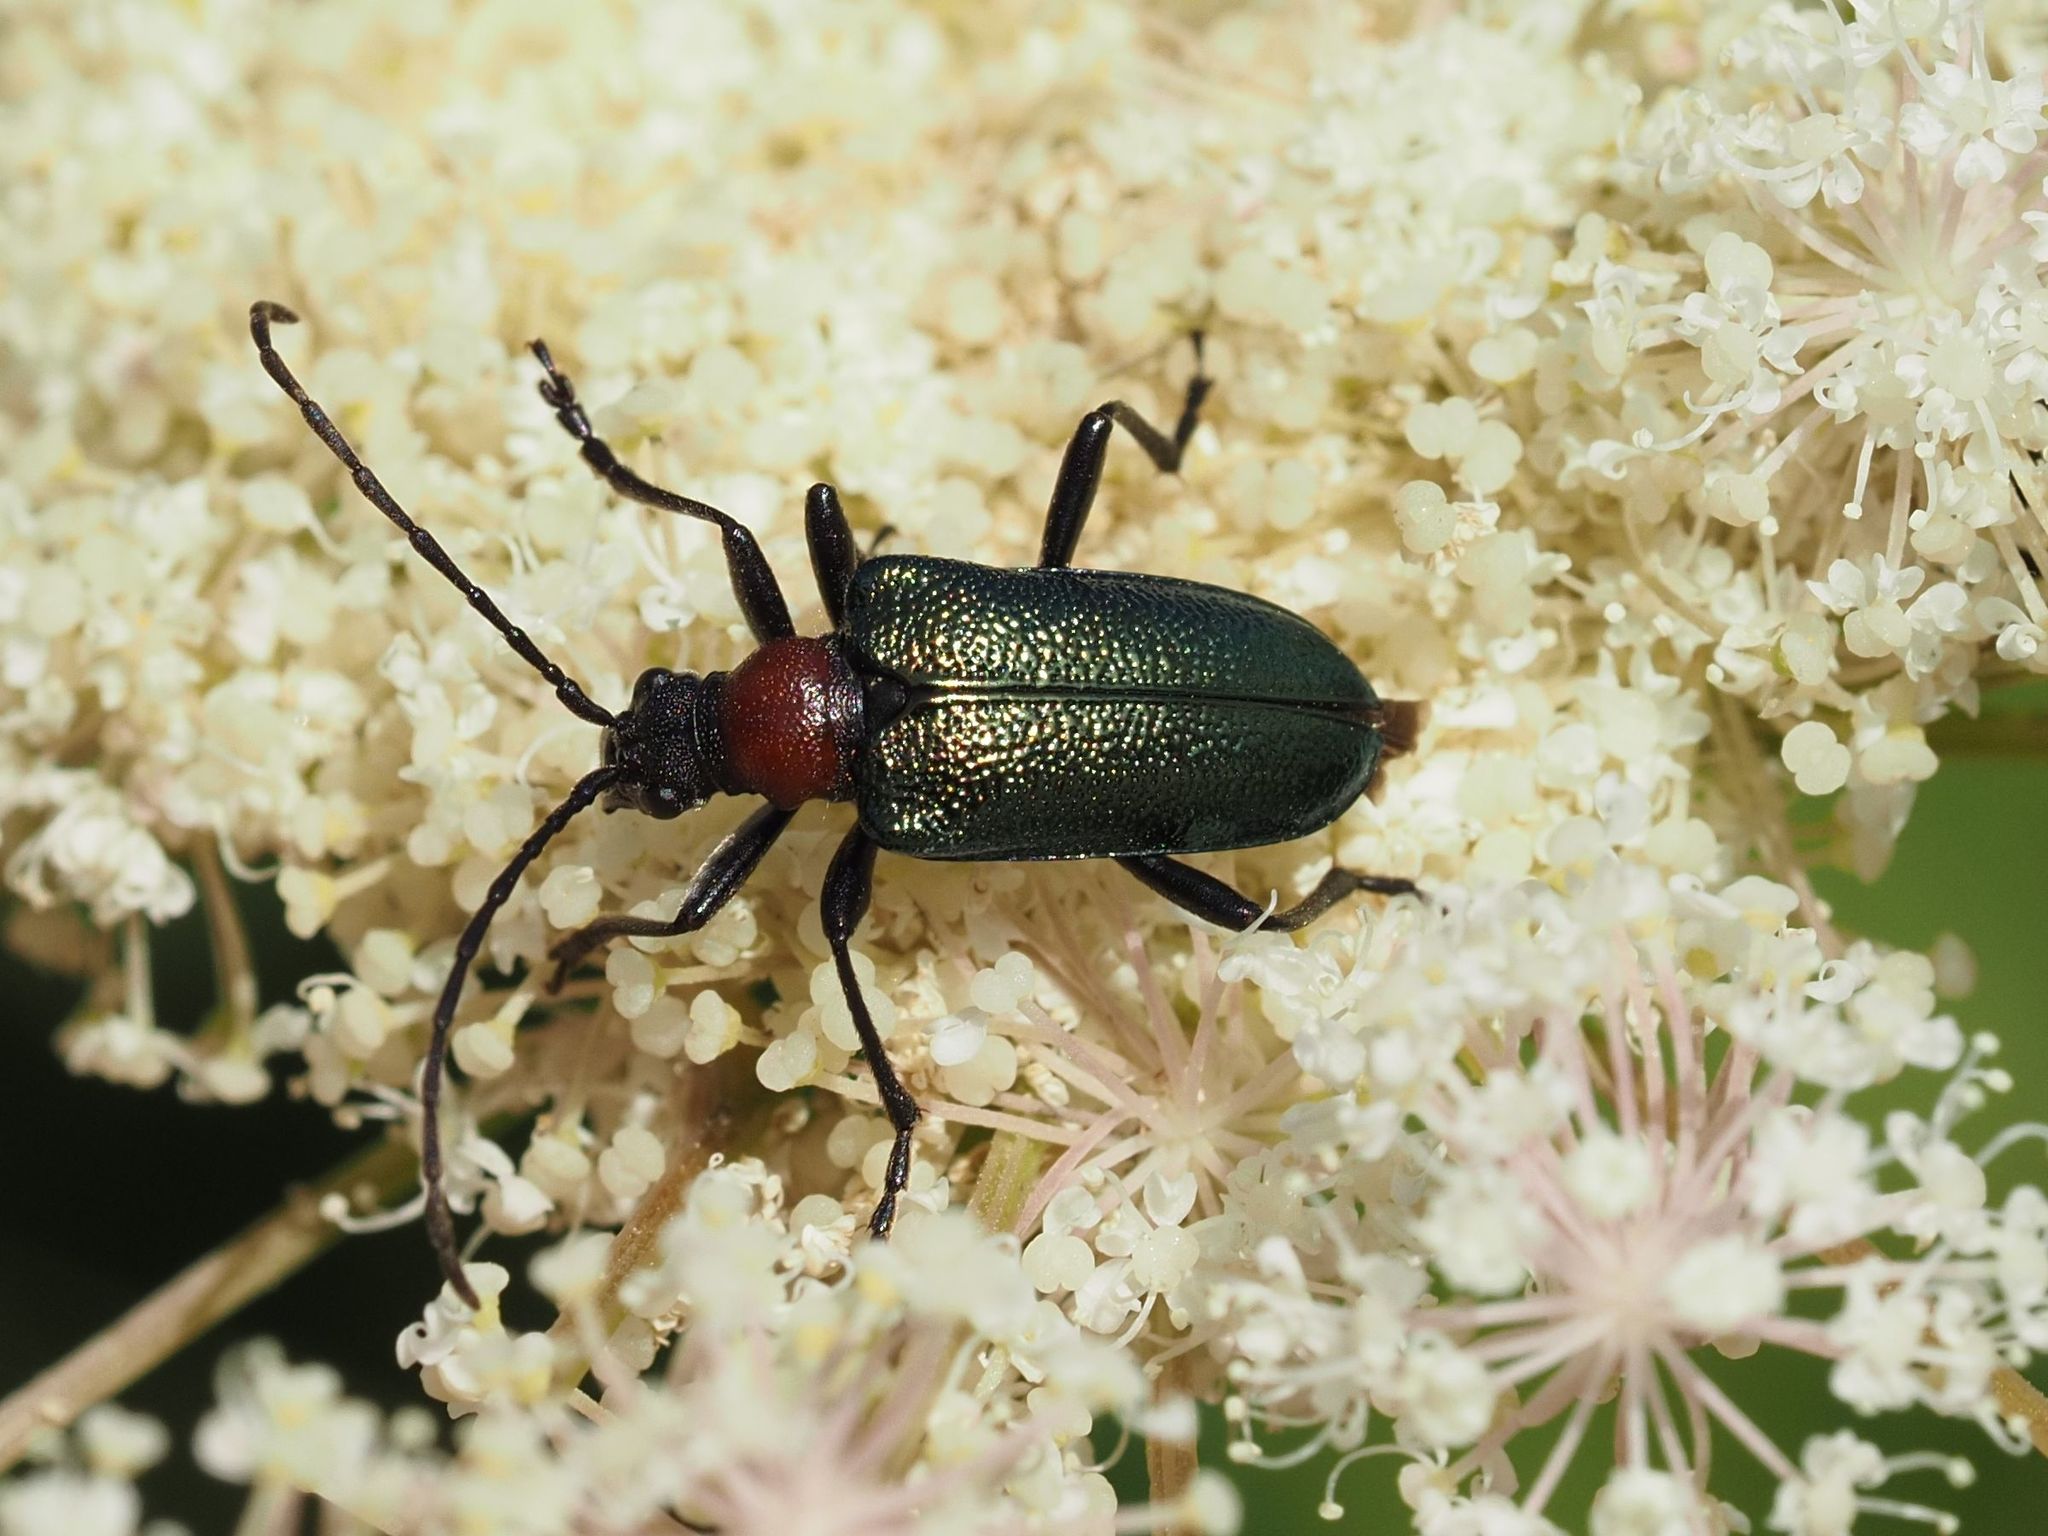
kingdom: Animalia
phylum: Arthropoda
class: Insecta
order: Coleoptera
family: Cerambycidae
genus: Gaurotes
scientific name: Gaurotes virginea
